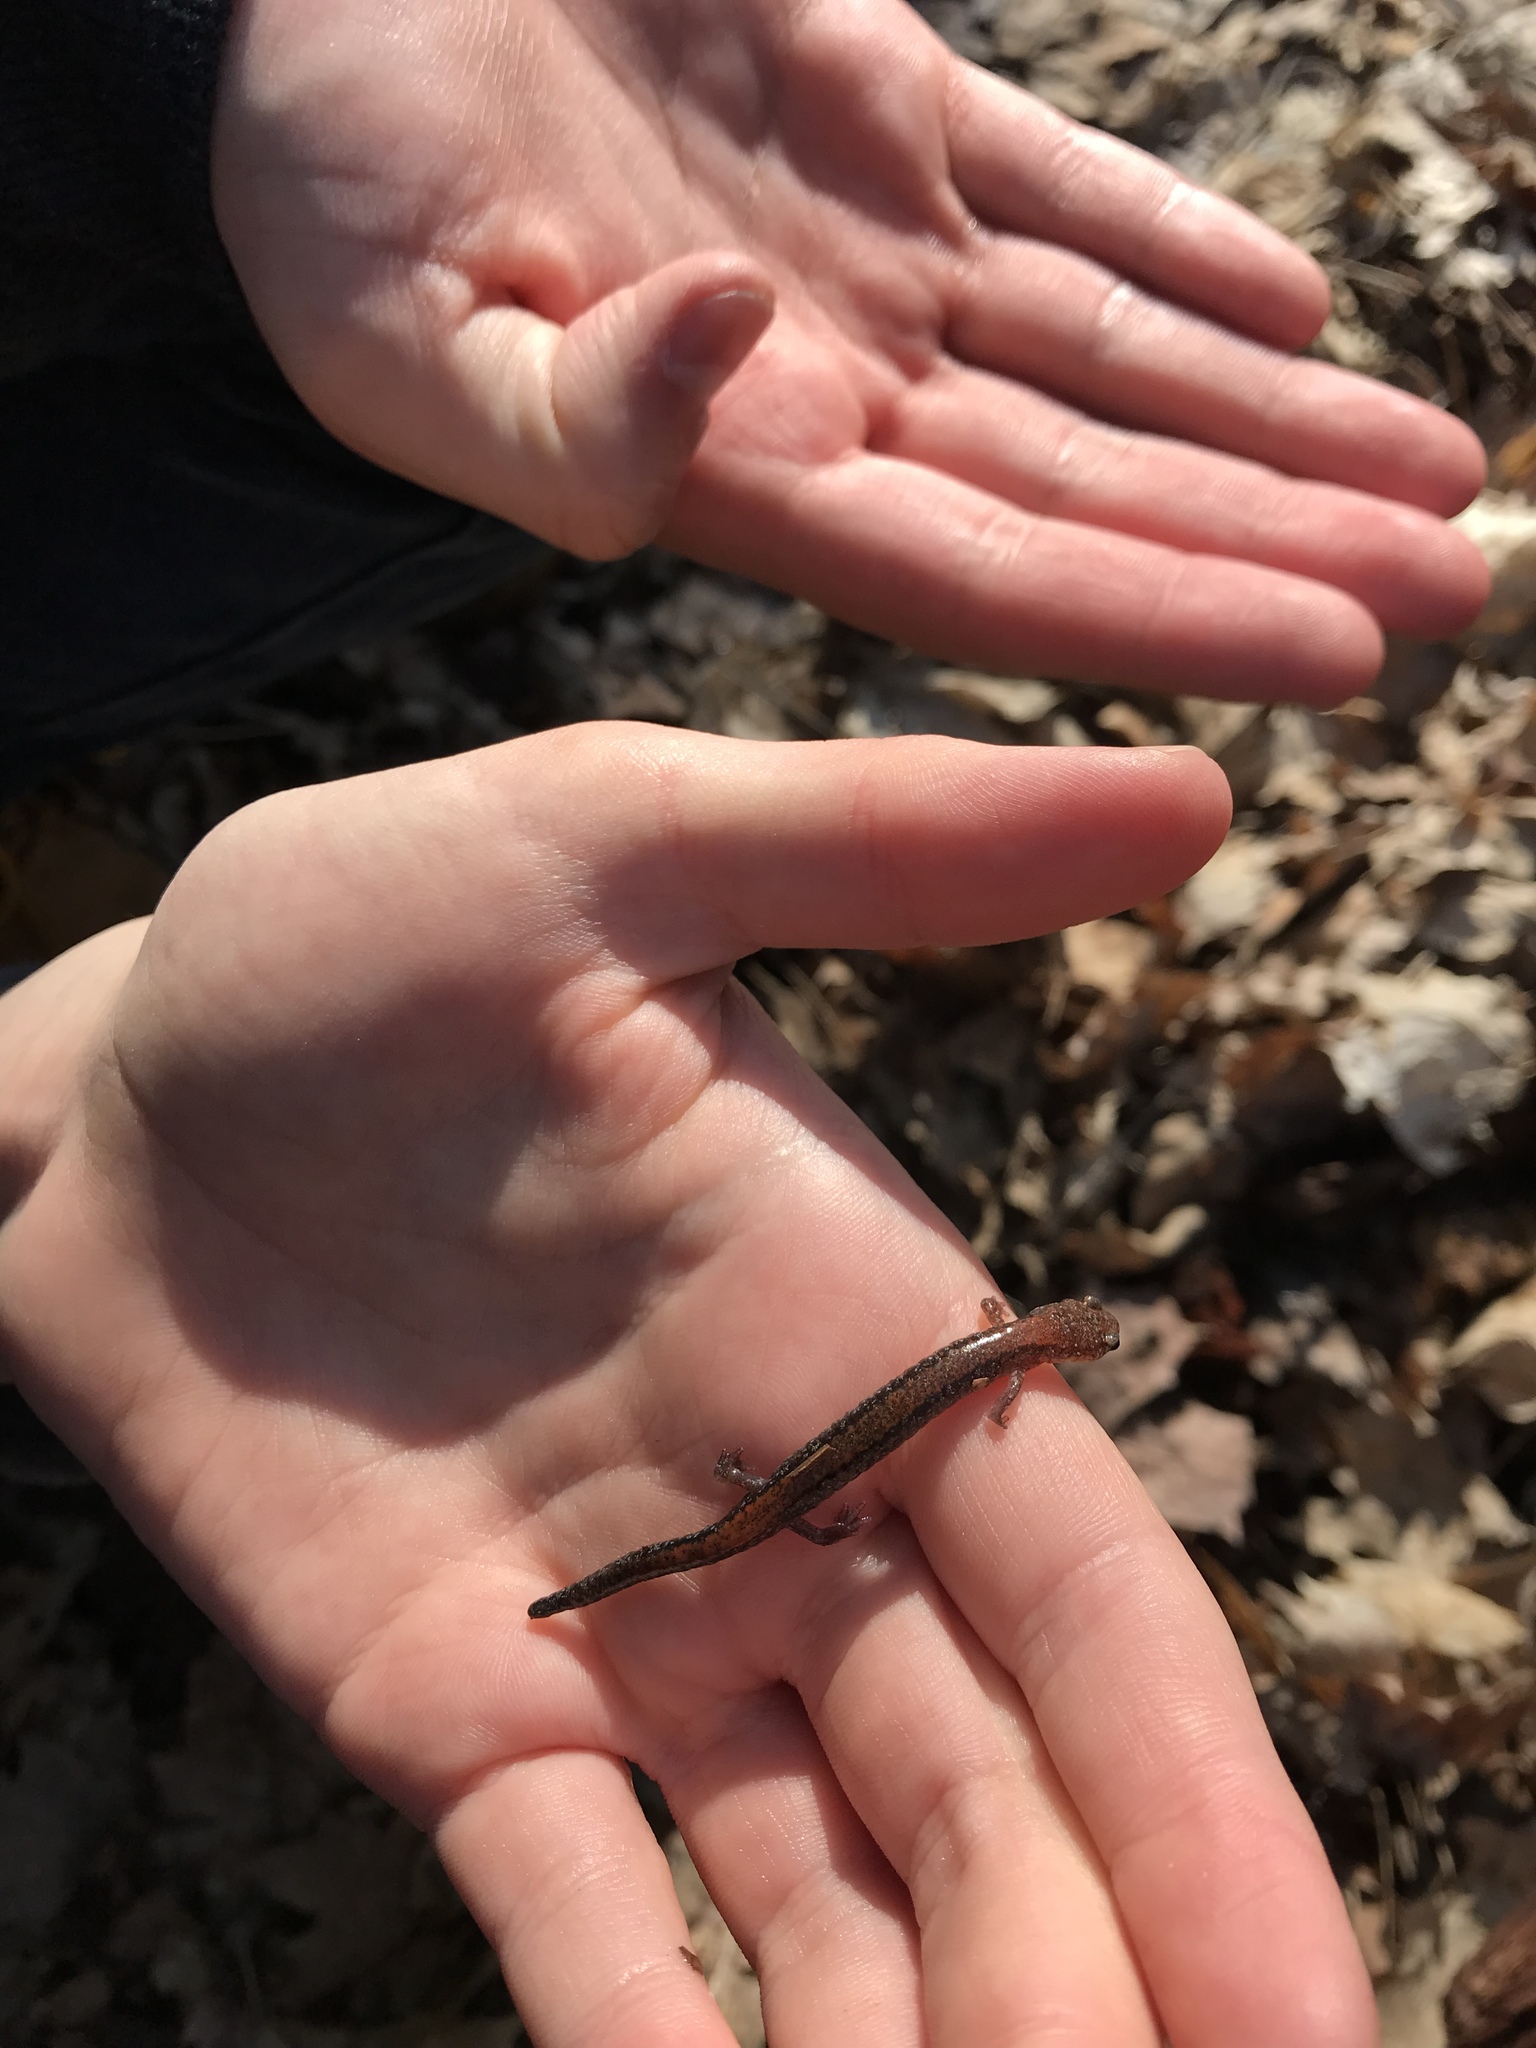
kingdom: Animalia
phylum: Chordata
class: Amphibia
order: Caudata
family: Plethodontidae
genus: Plethodon
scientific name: Plethodon cinereus
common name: Redback salamander
